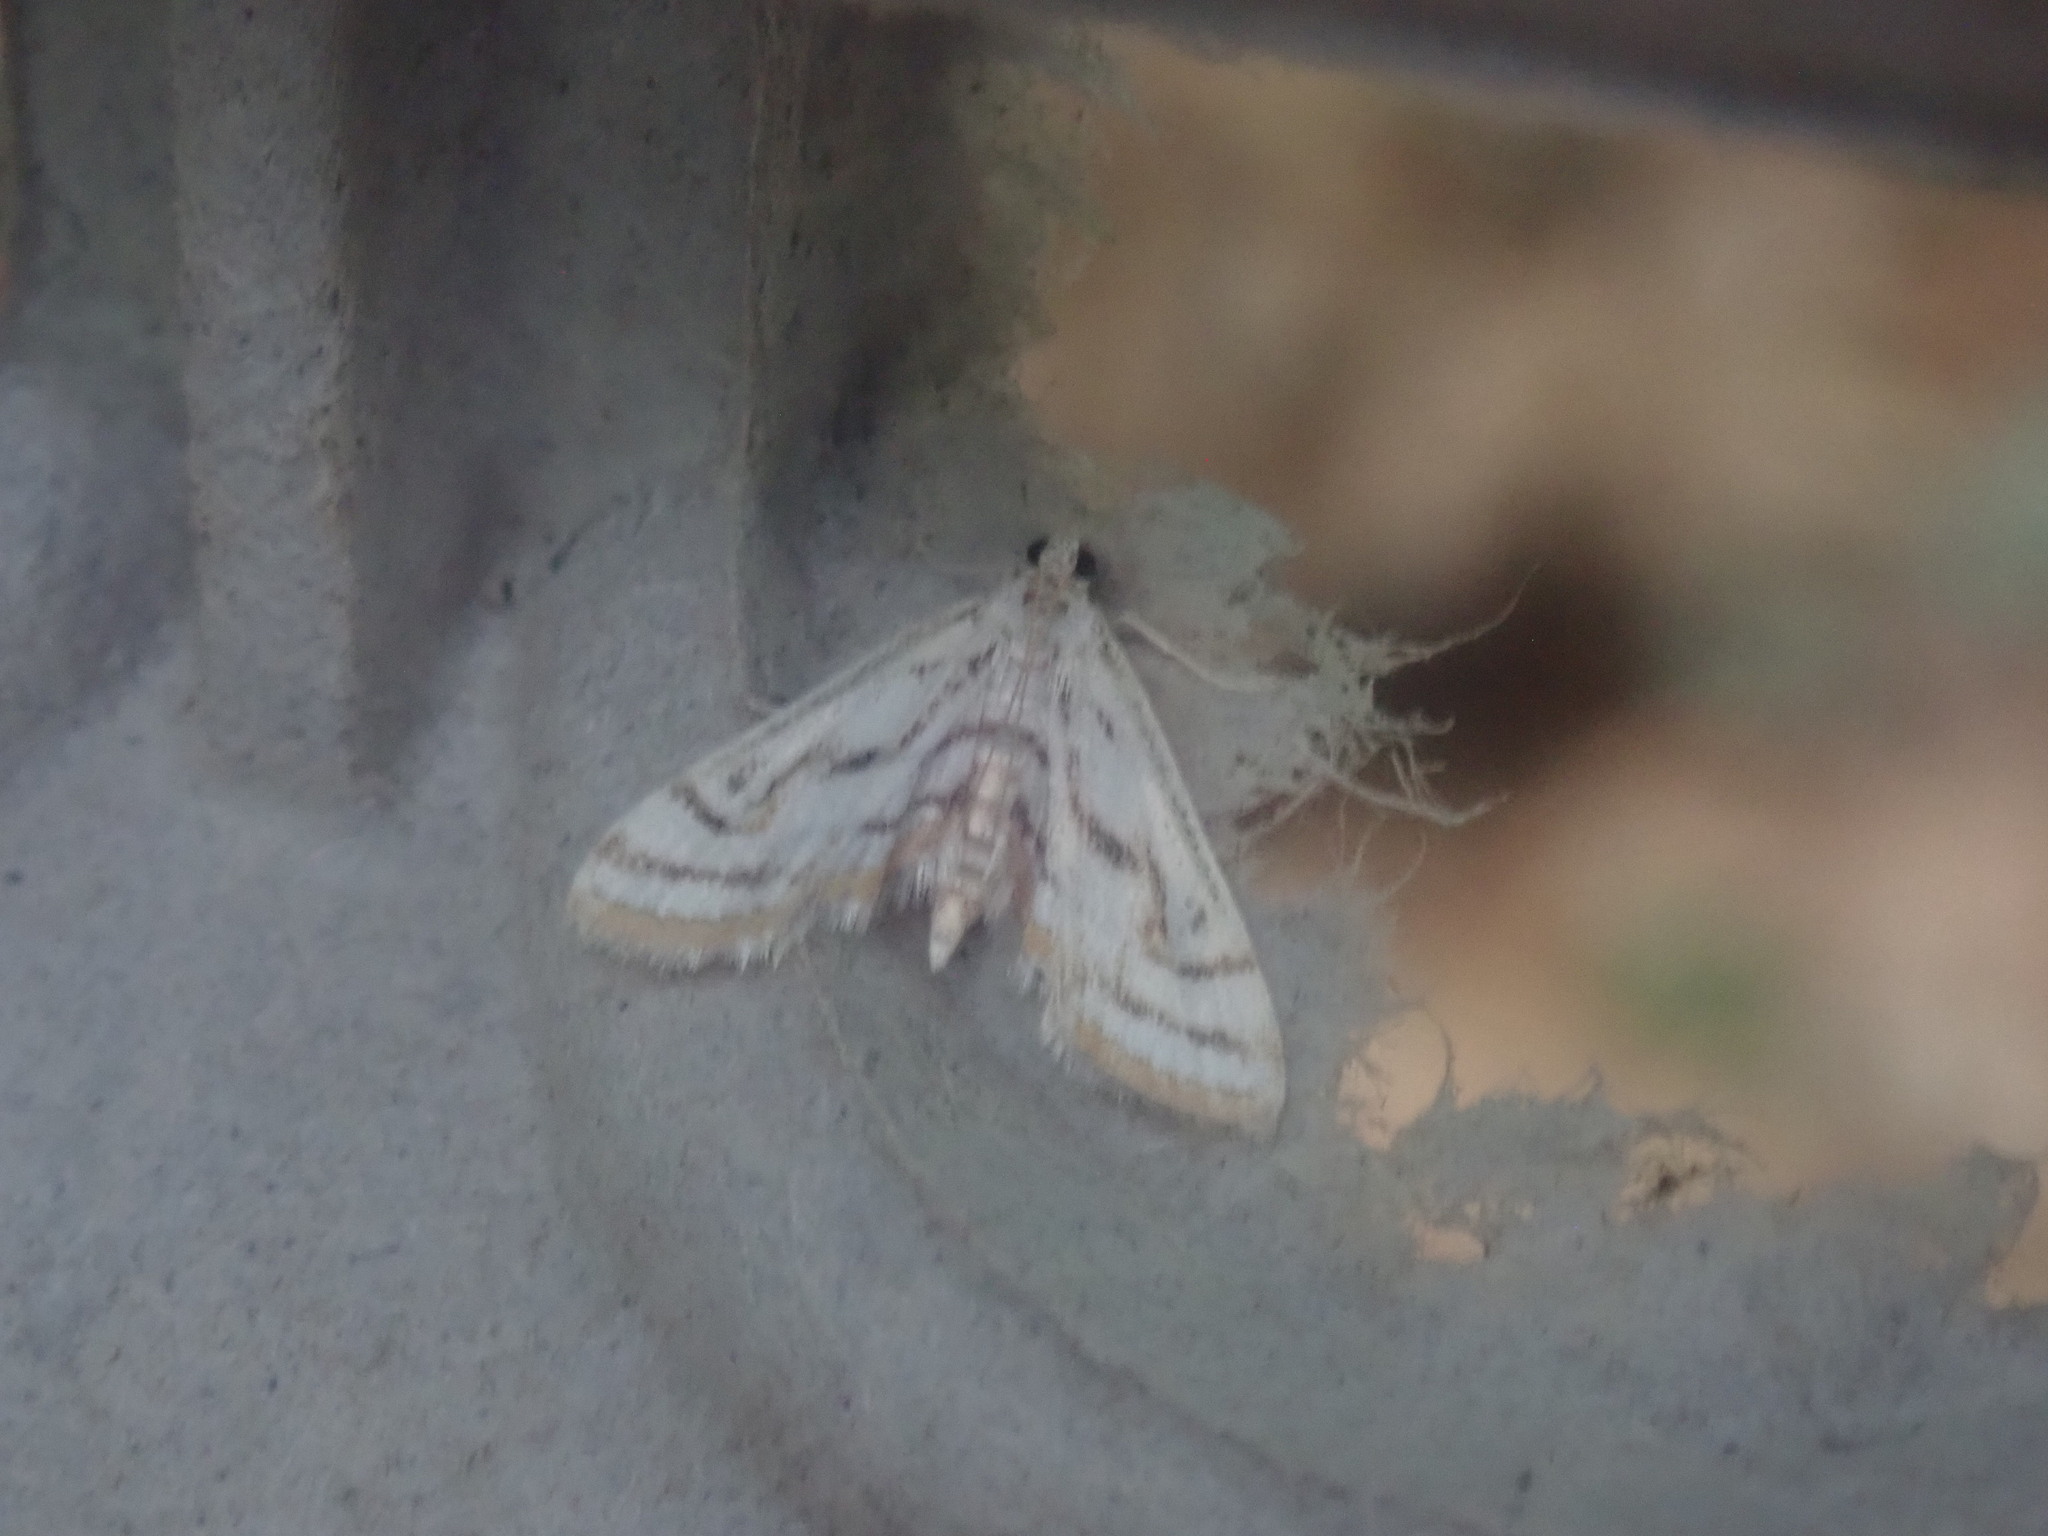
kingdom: Animalia
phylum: Arthropoda
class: Insecta
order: Lepidoptera
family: Crambidae
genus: Parapoynx
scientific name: Parapoynx badiusalis
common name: Chestnut-marked pondweed moth
